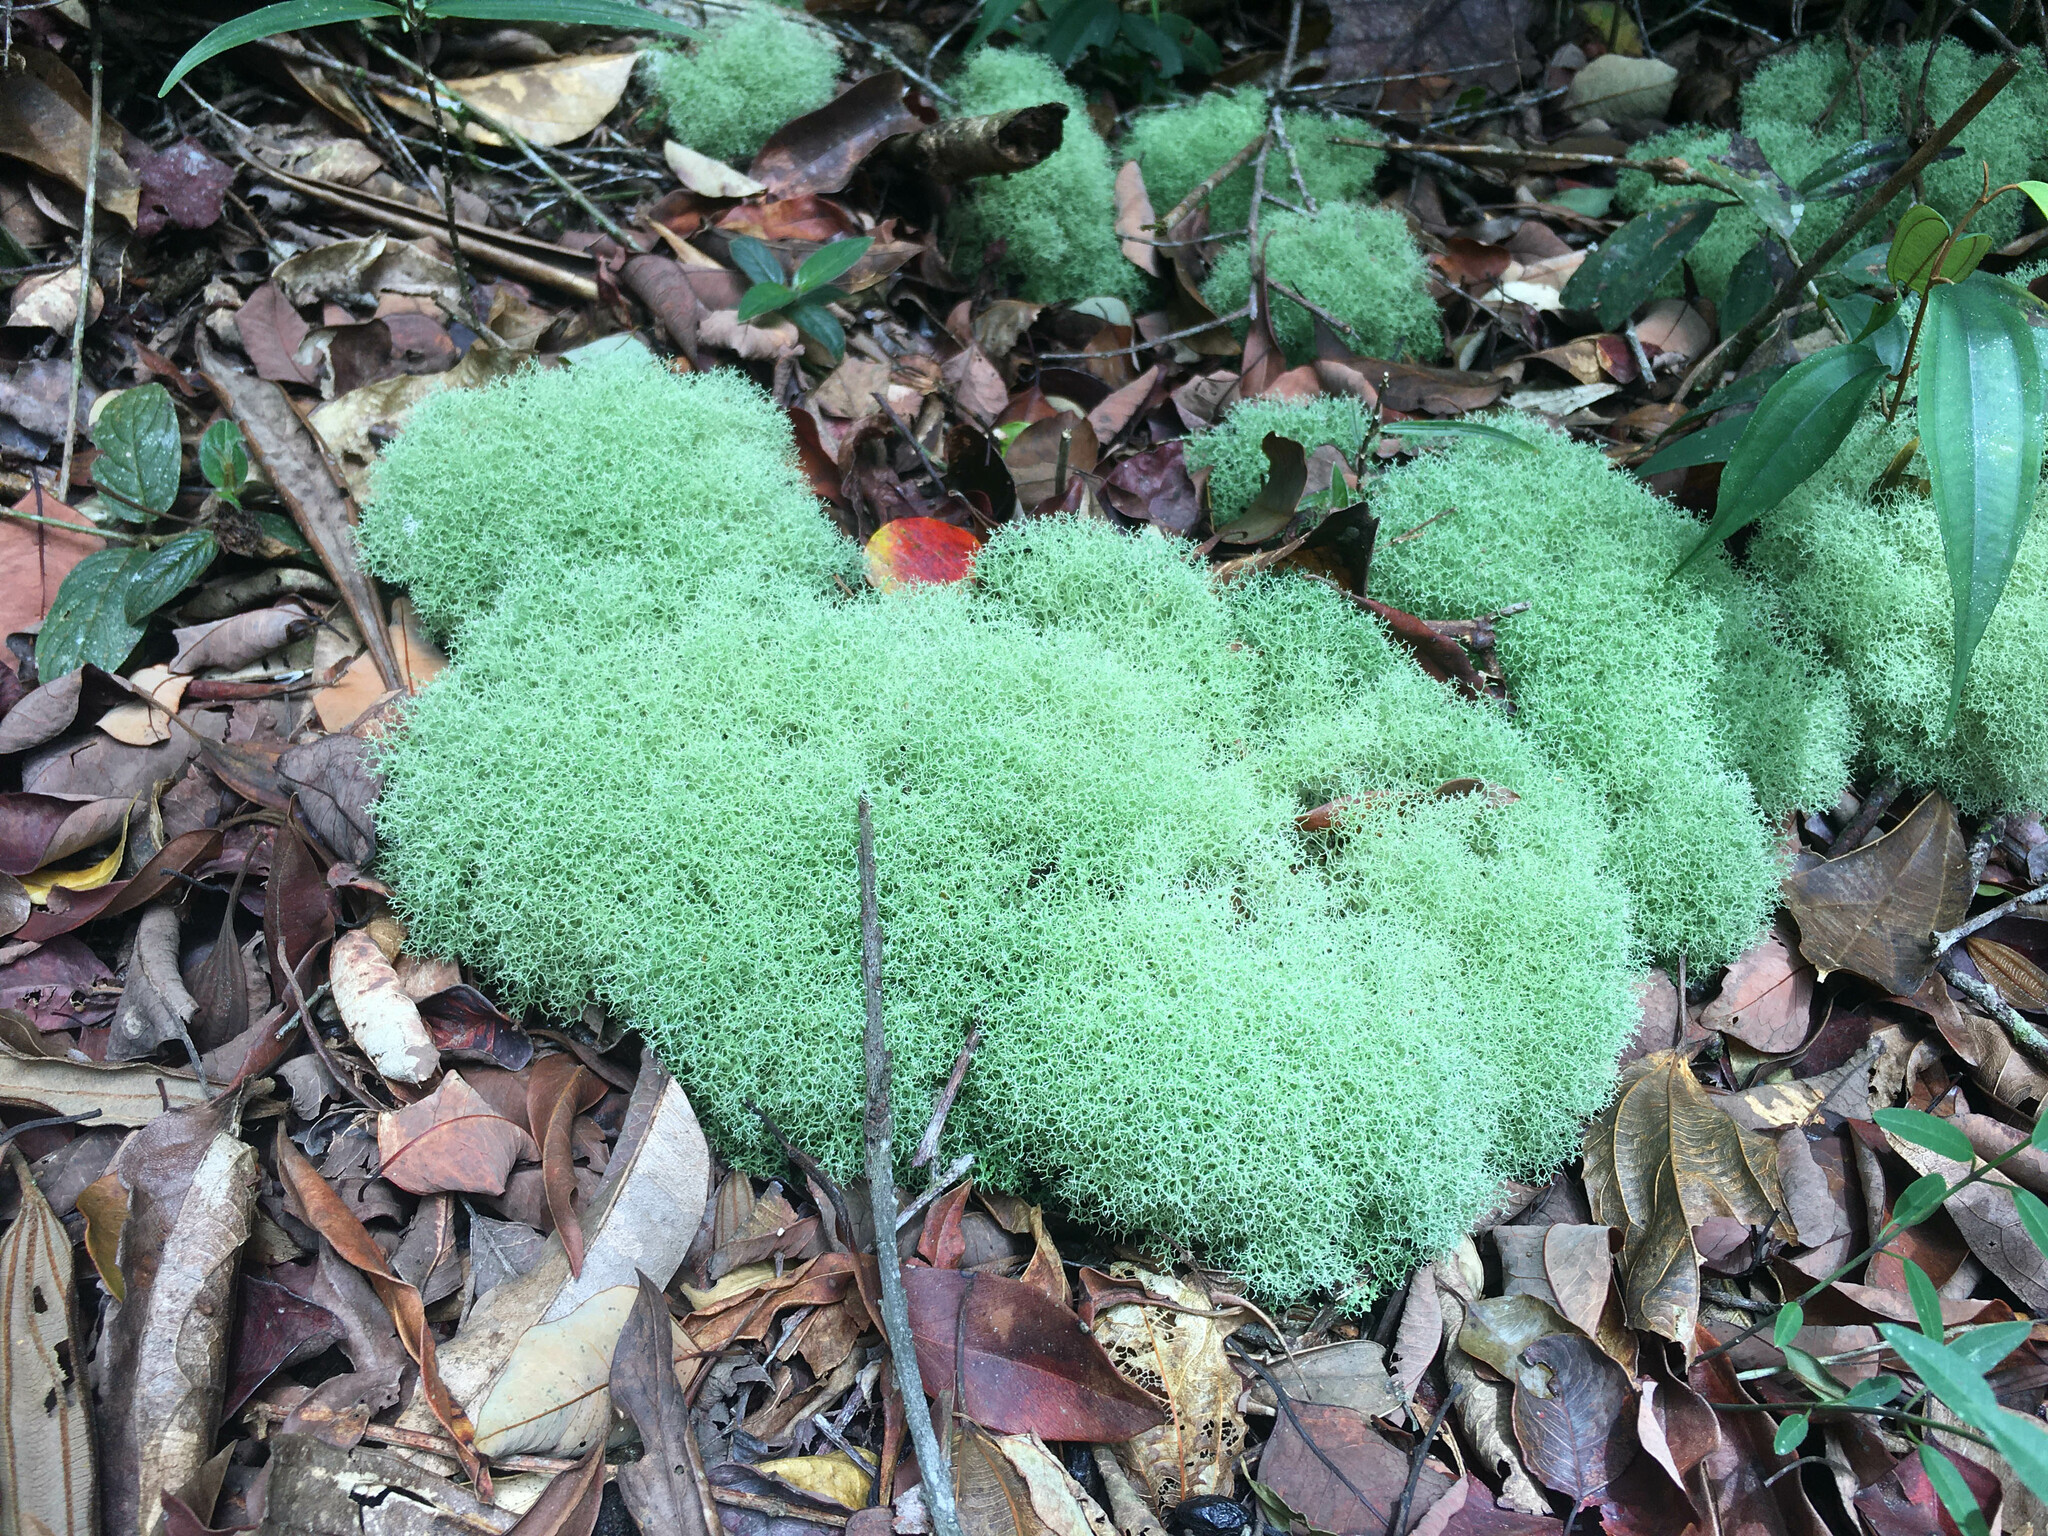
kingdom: Fungi
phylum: Ascomycota
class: Lecanoromycetes
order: Lecanorales
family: Cladoniaceae
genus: Cladia
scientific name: Cladia aggregata
